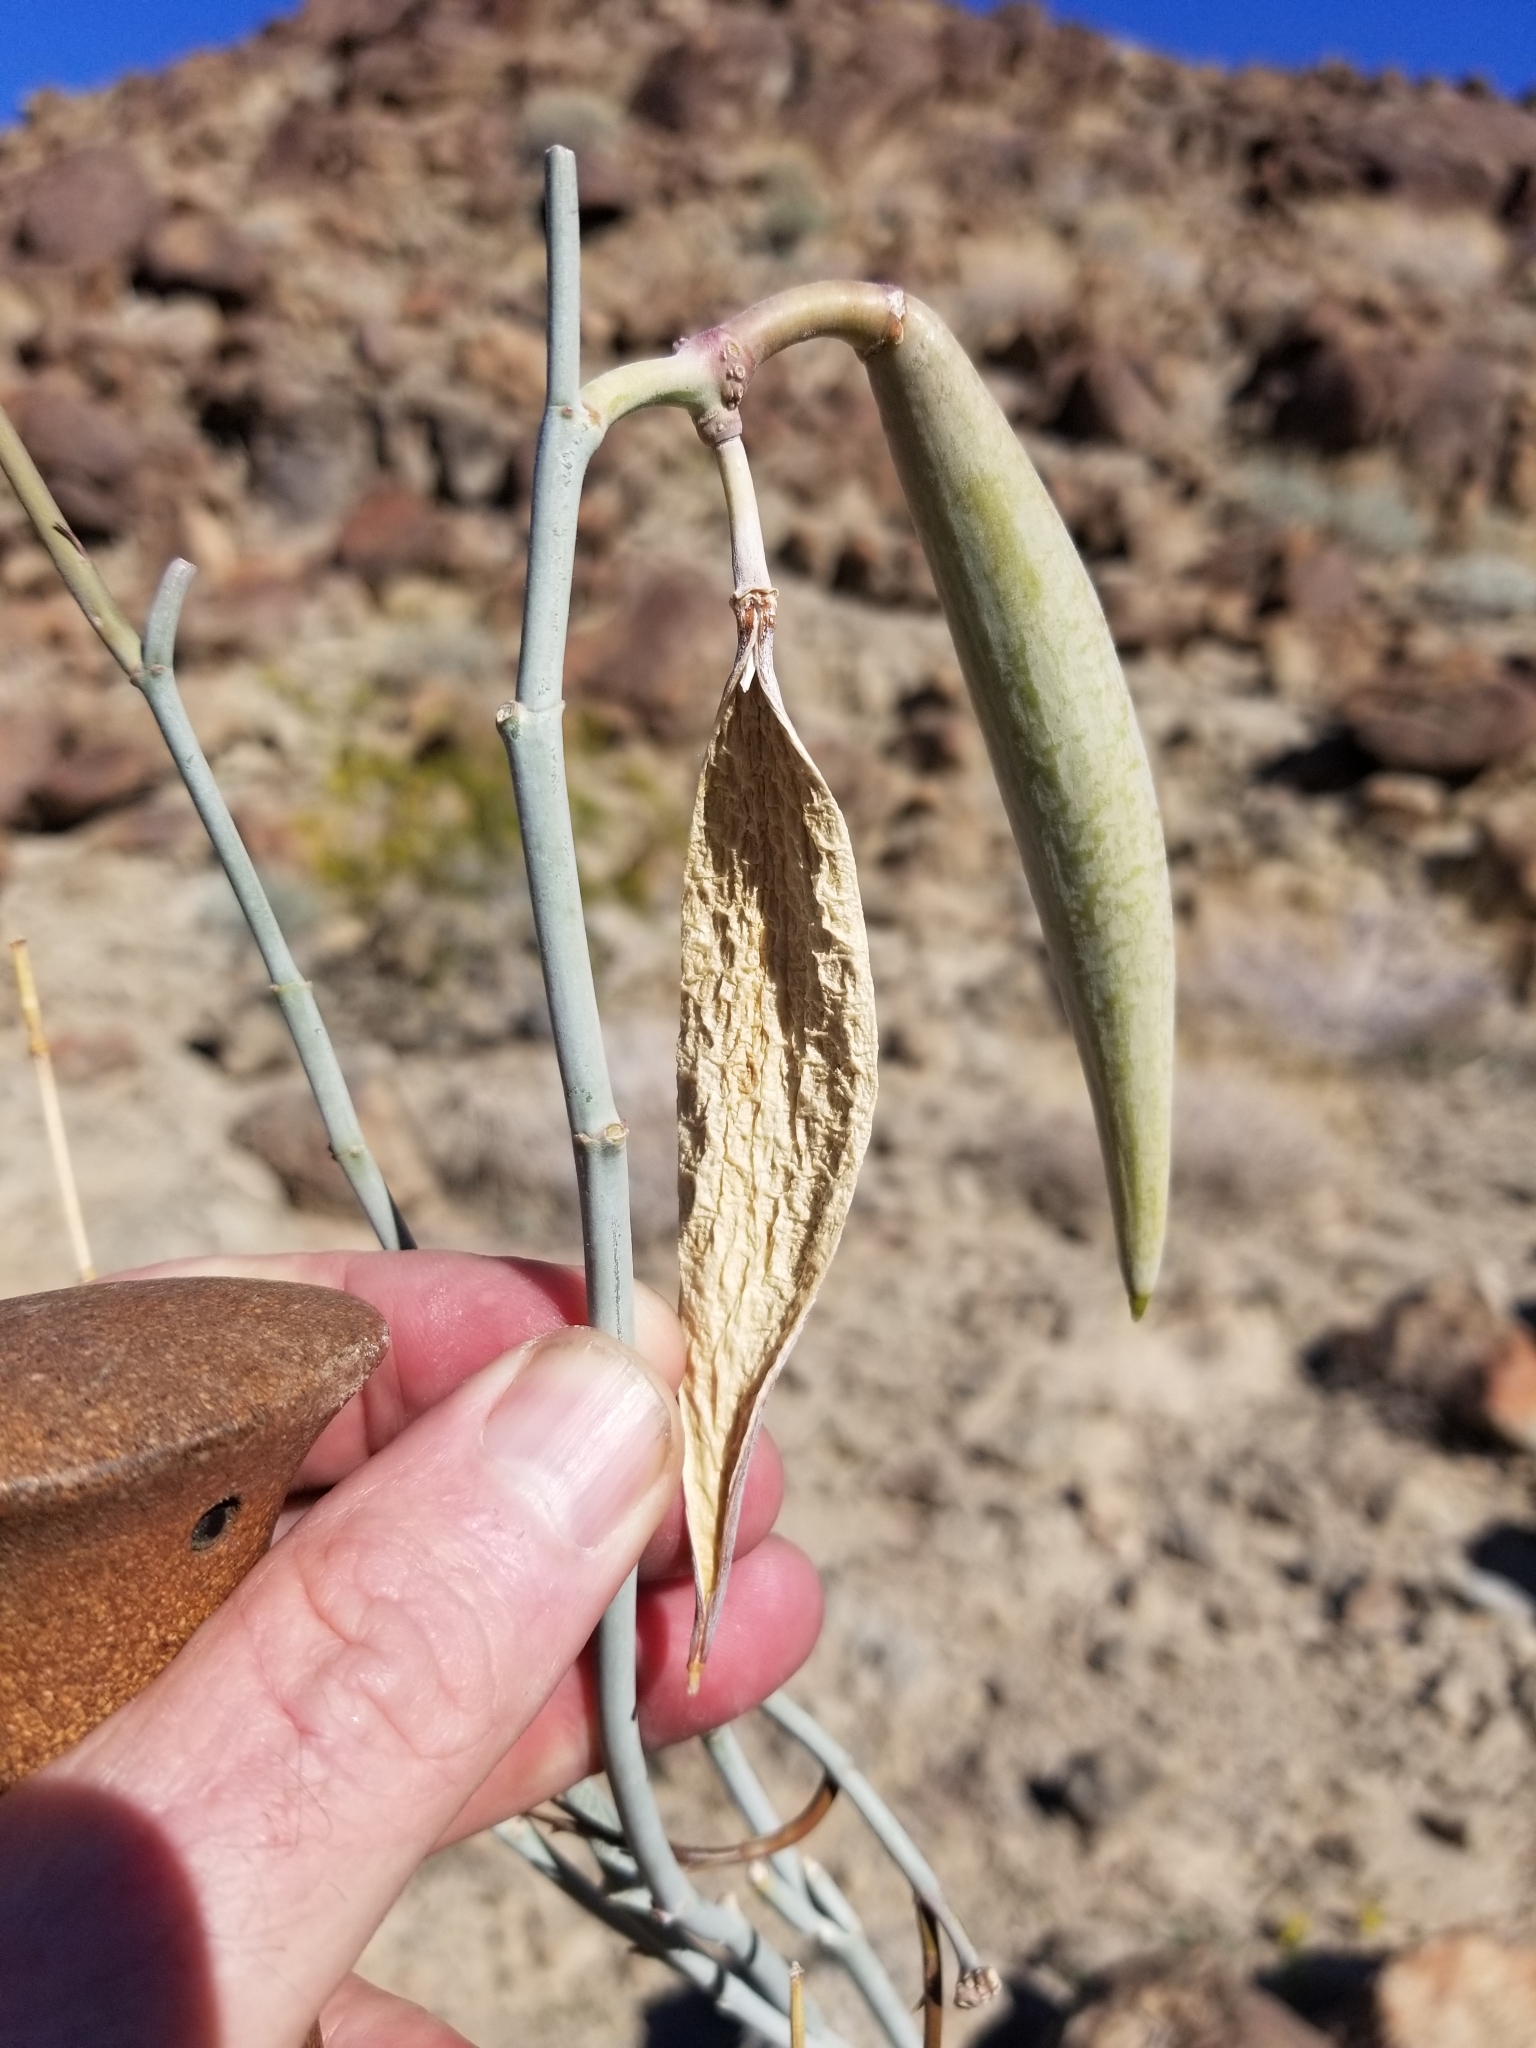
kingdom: Plantae
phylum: Tracheophyta
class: Magnoliopsida
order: Gentianales
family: Apocynaceae
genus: Asclepias
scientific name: Asclepias albicans
